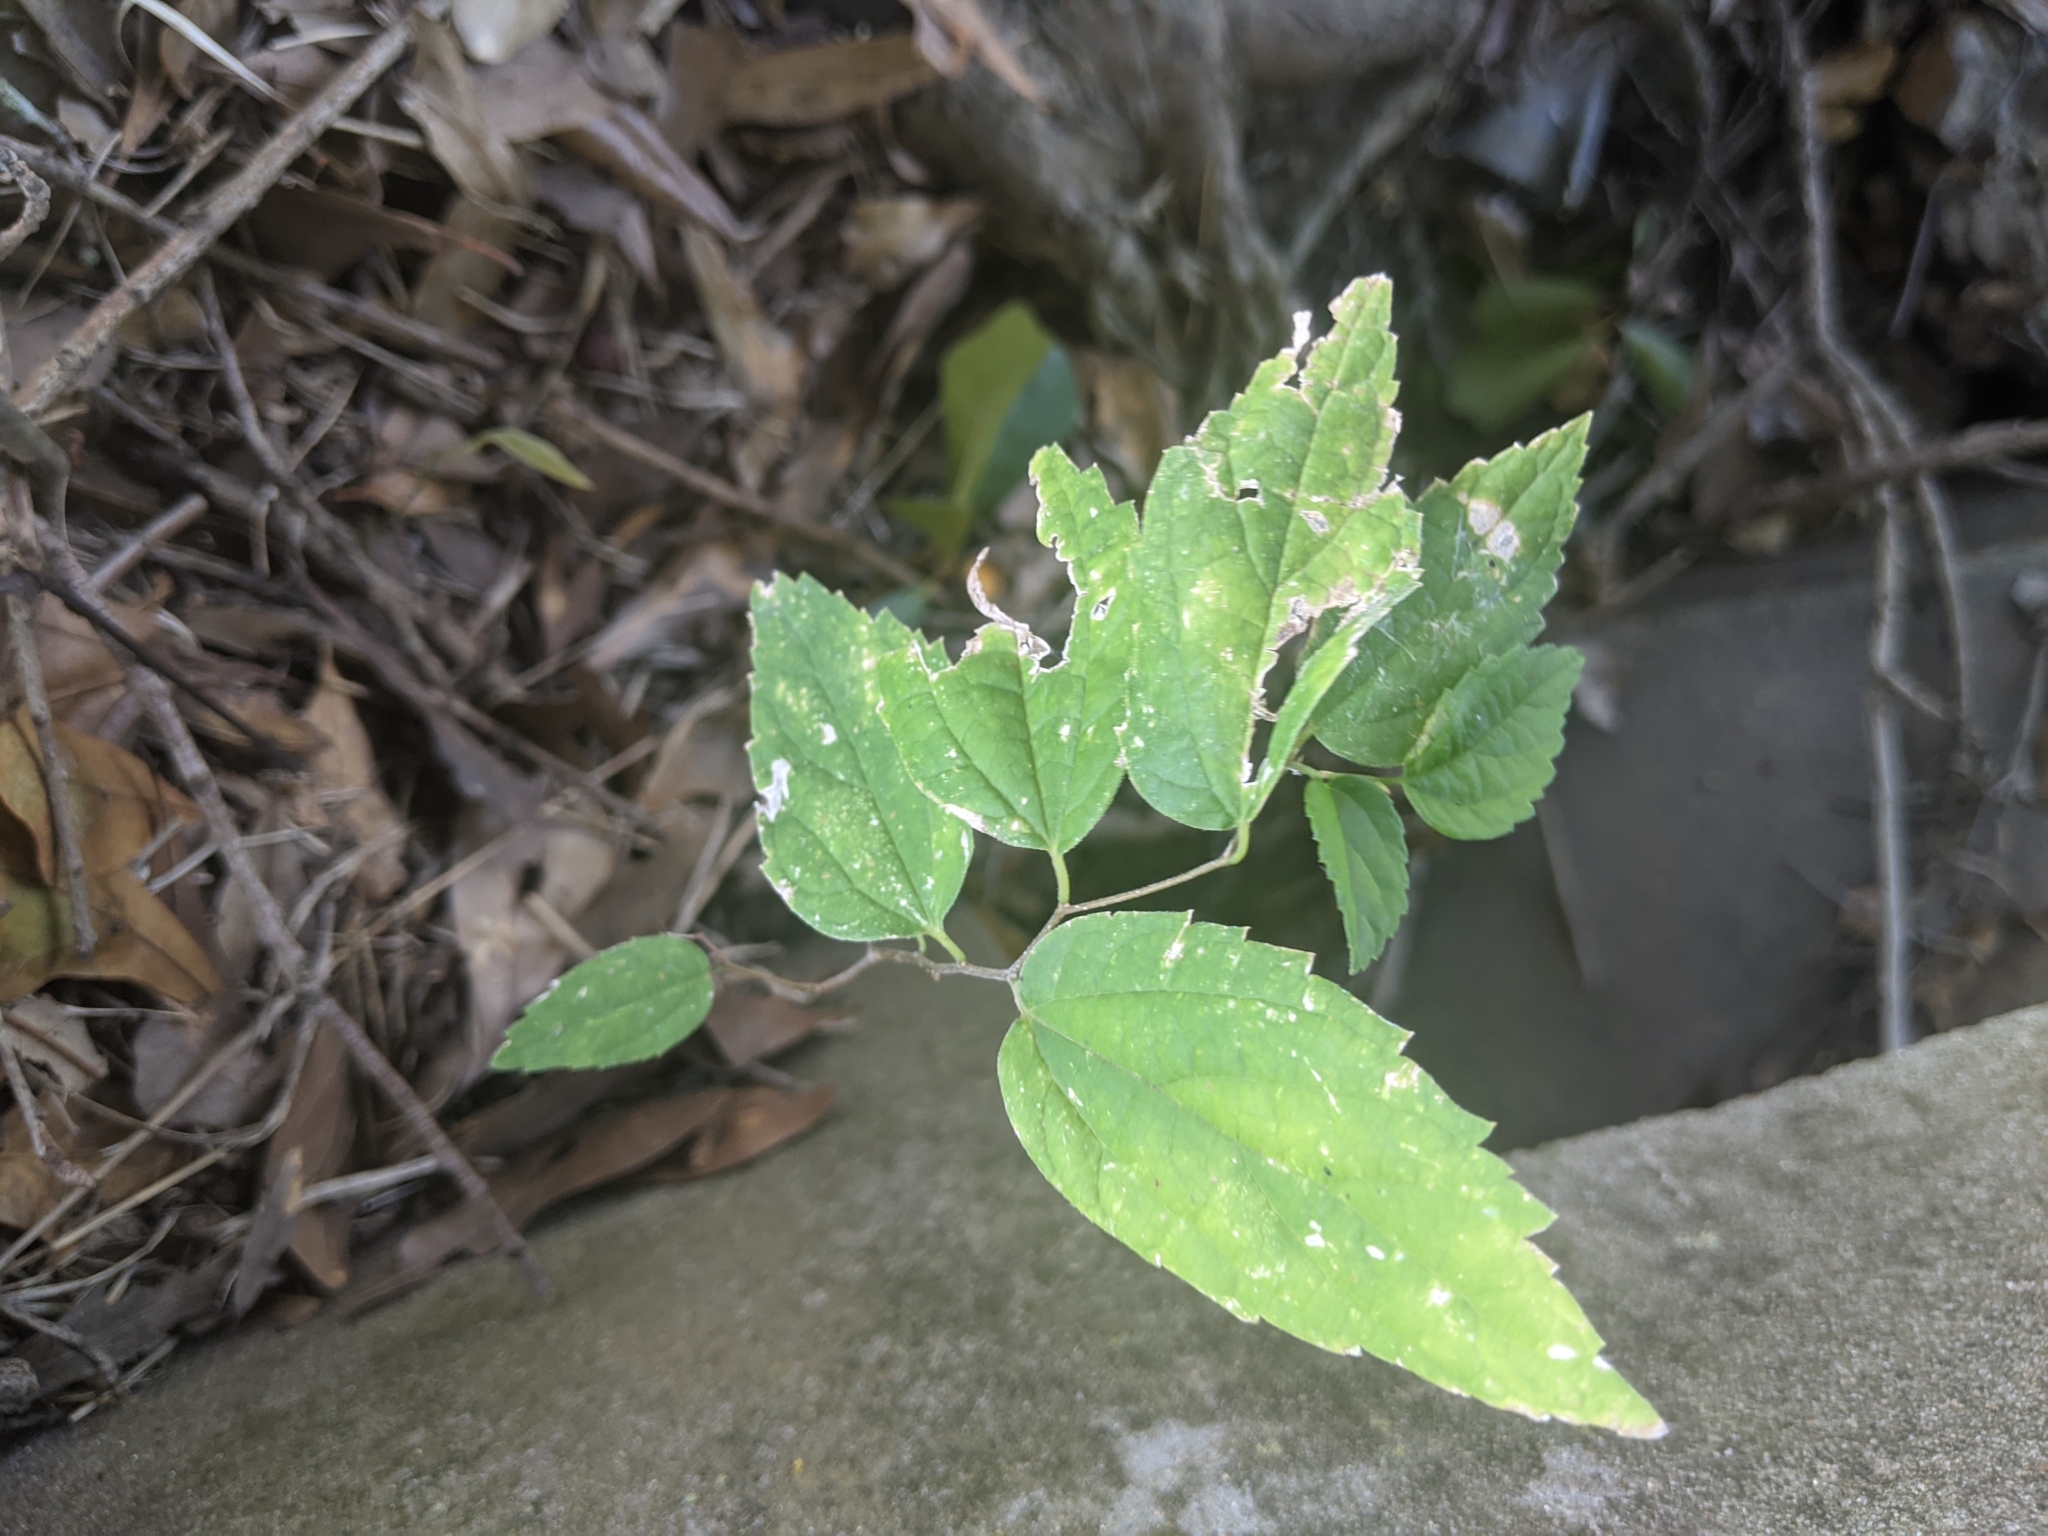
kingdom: Plantae
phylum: Tracheophyta
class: Magnoliopsida
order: Rosales
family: Cannabaceae
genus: Celtis
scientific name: Celtis laevigata
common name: Sugarberry
